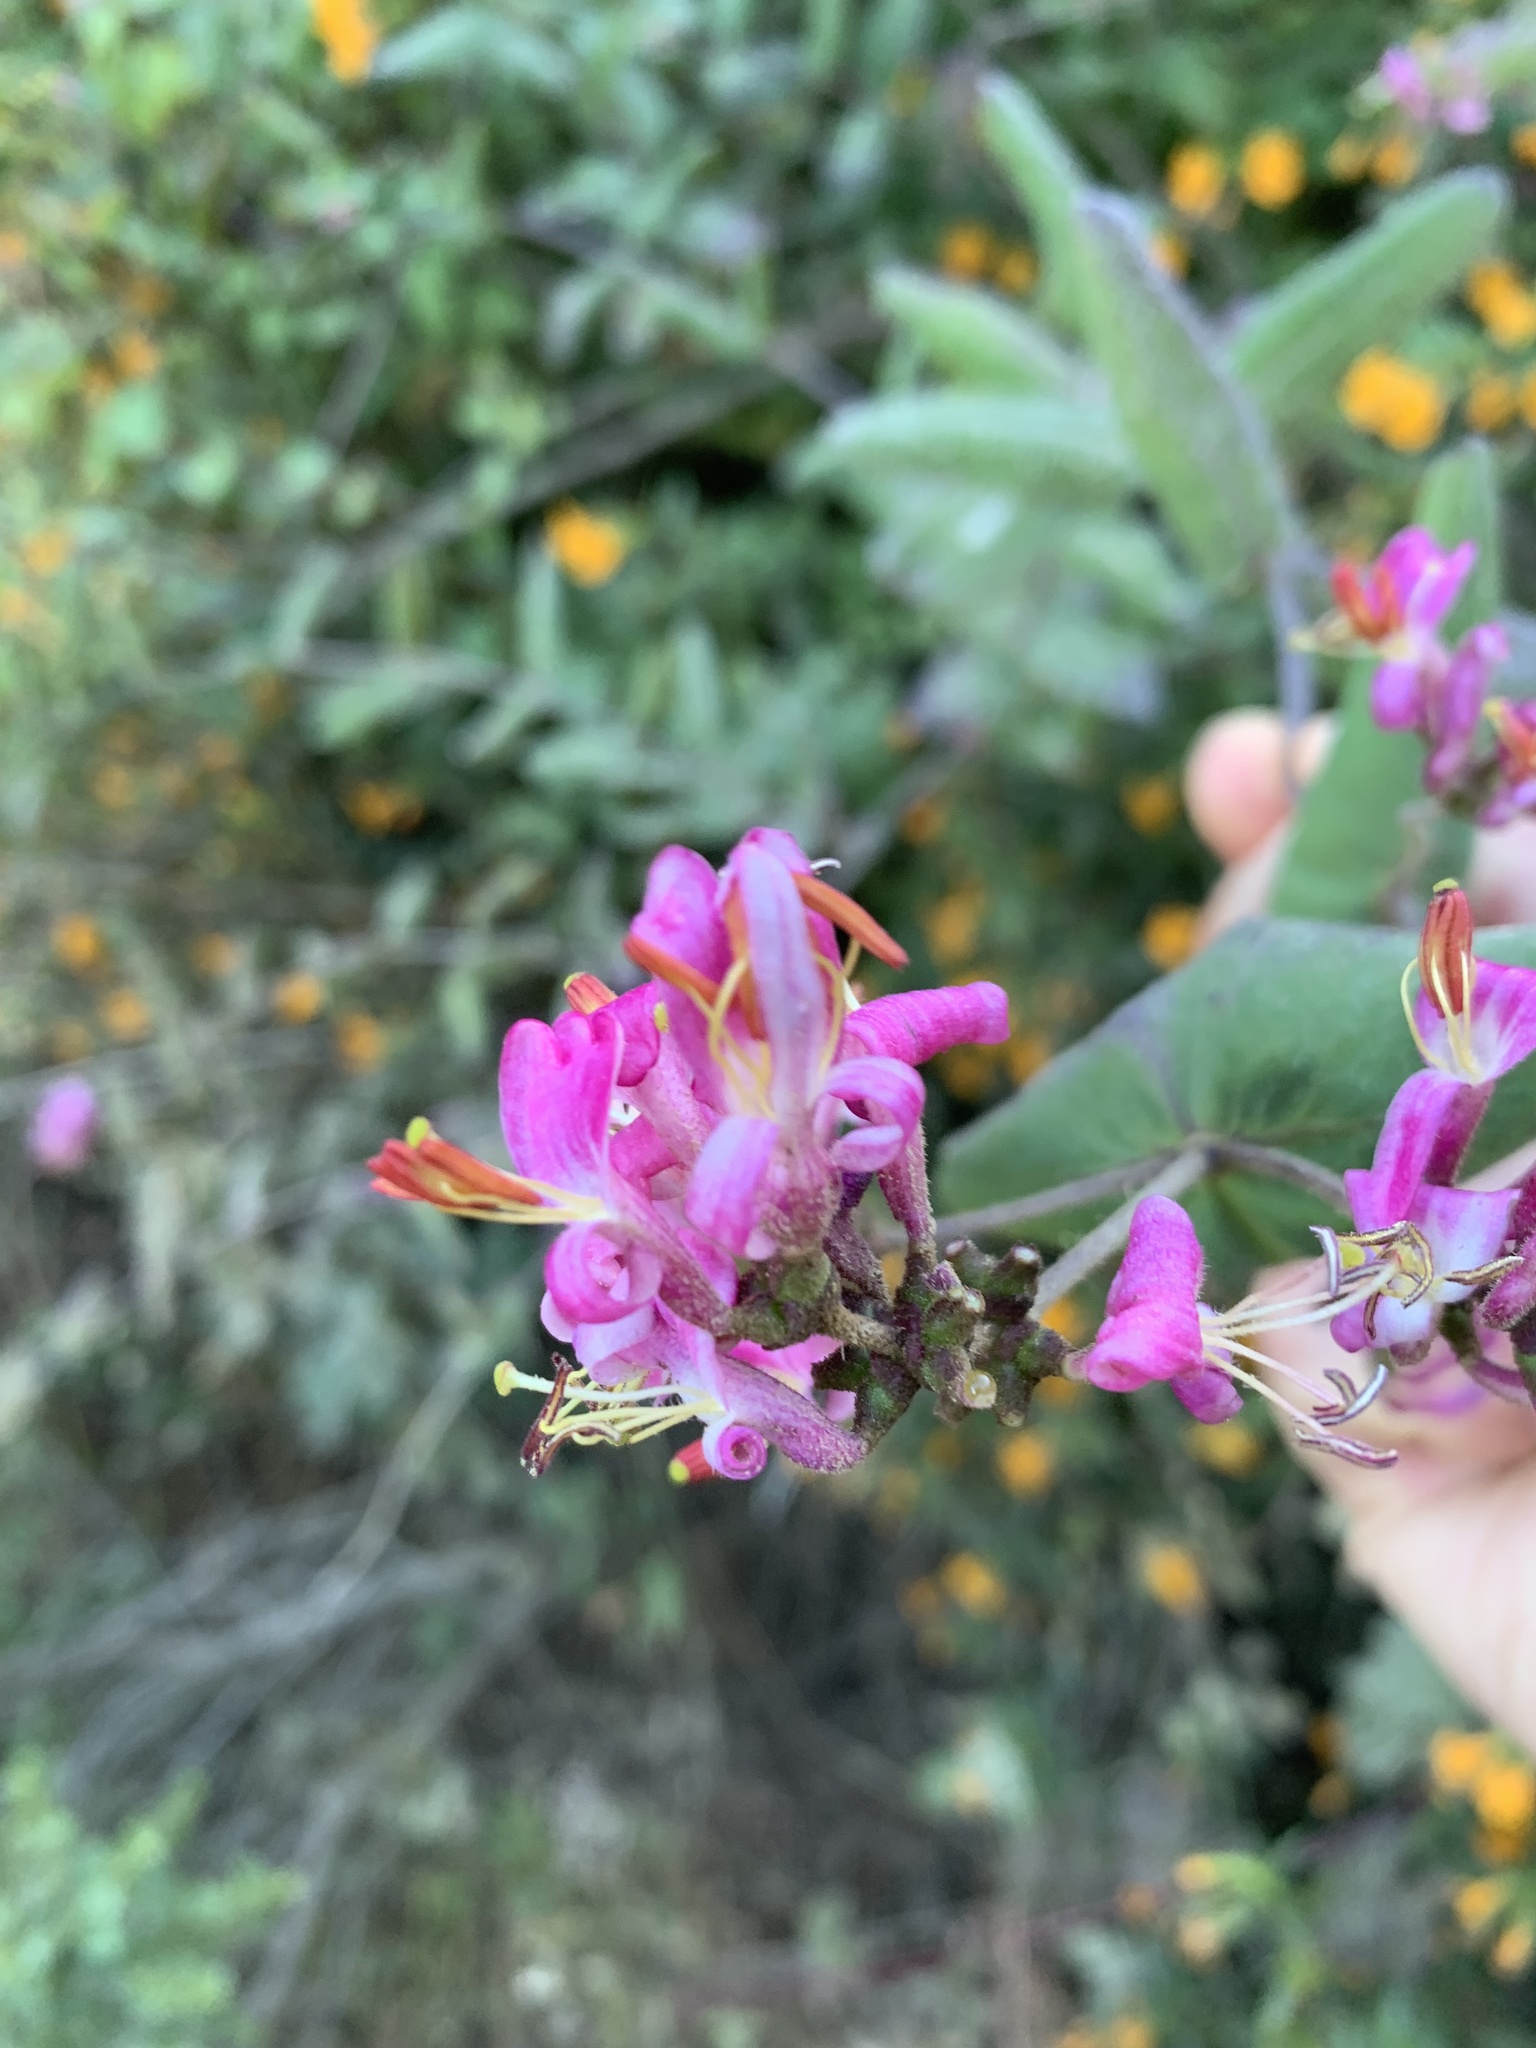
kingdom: Plantae
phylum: Tracheophyta
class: Magnoliopsida
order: Dipsacales
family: Caprifoliaceae
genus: Lonicera
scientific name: Lonicera hispidula
